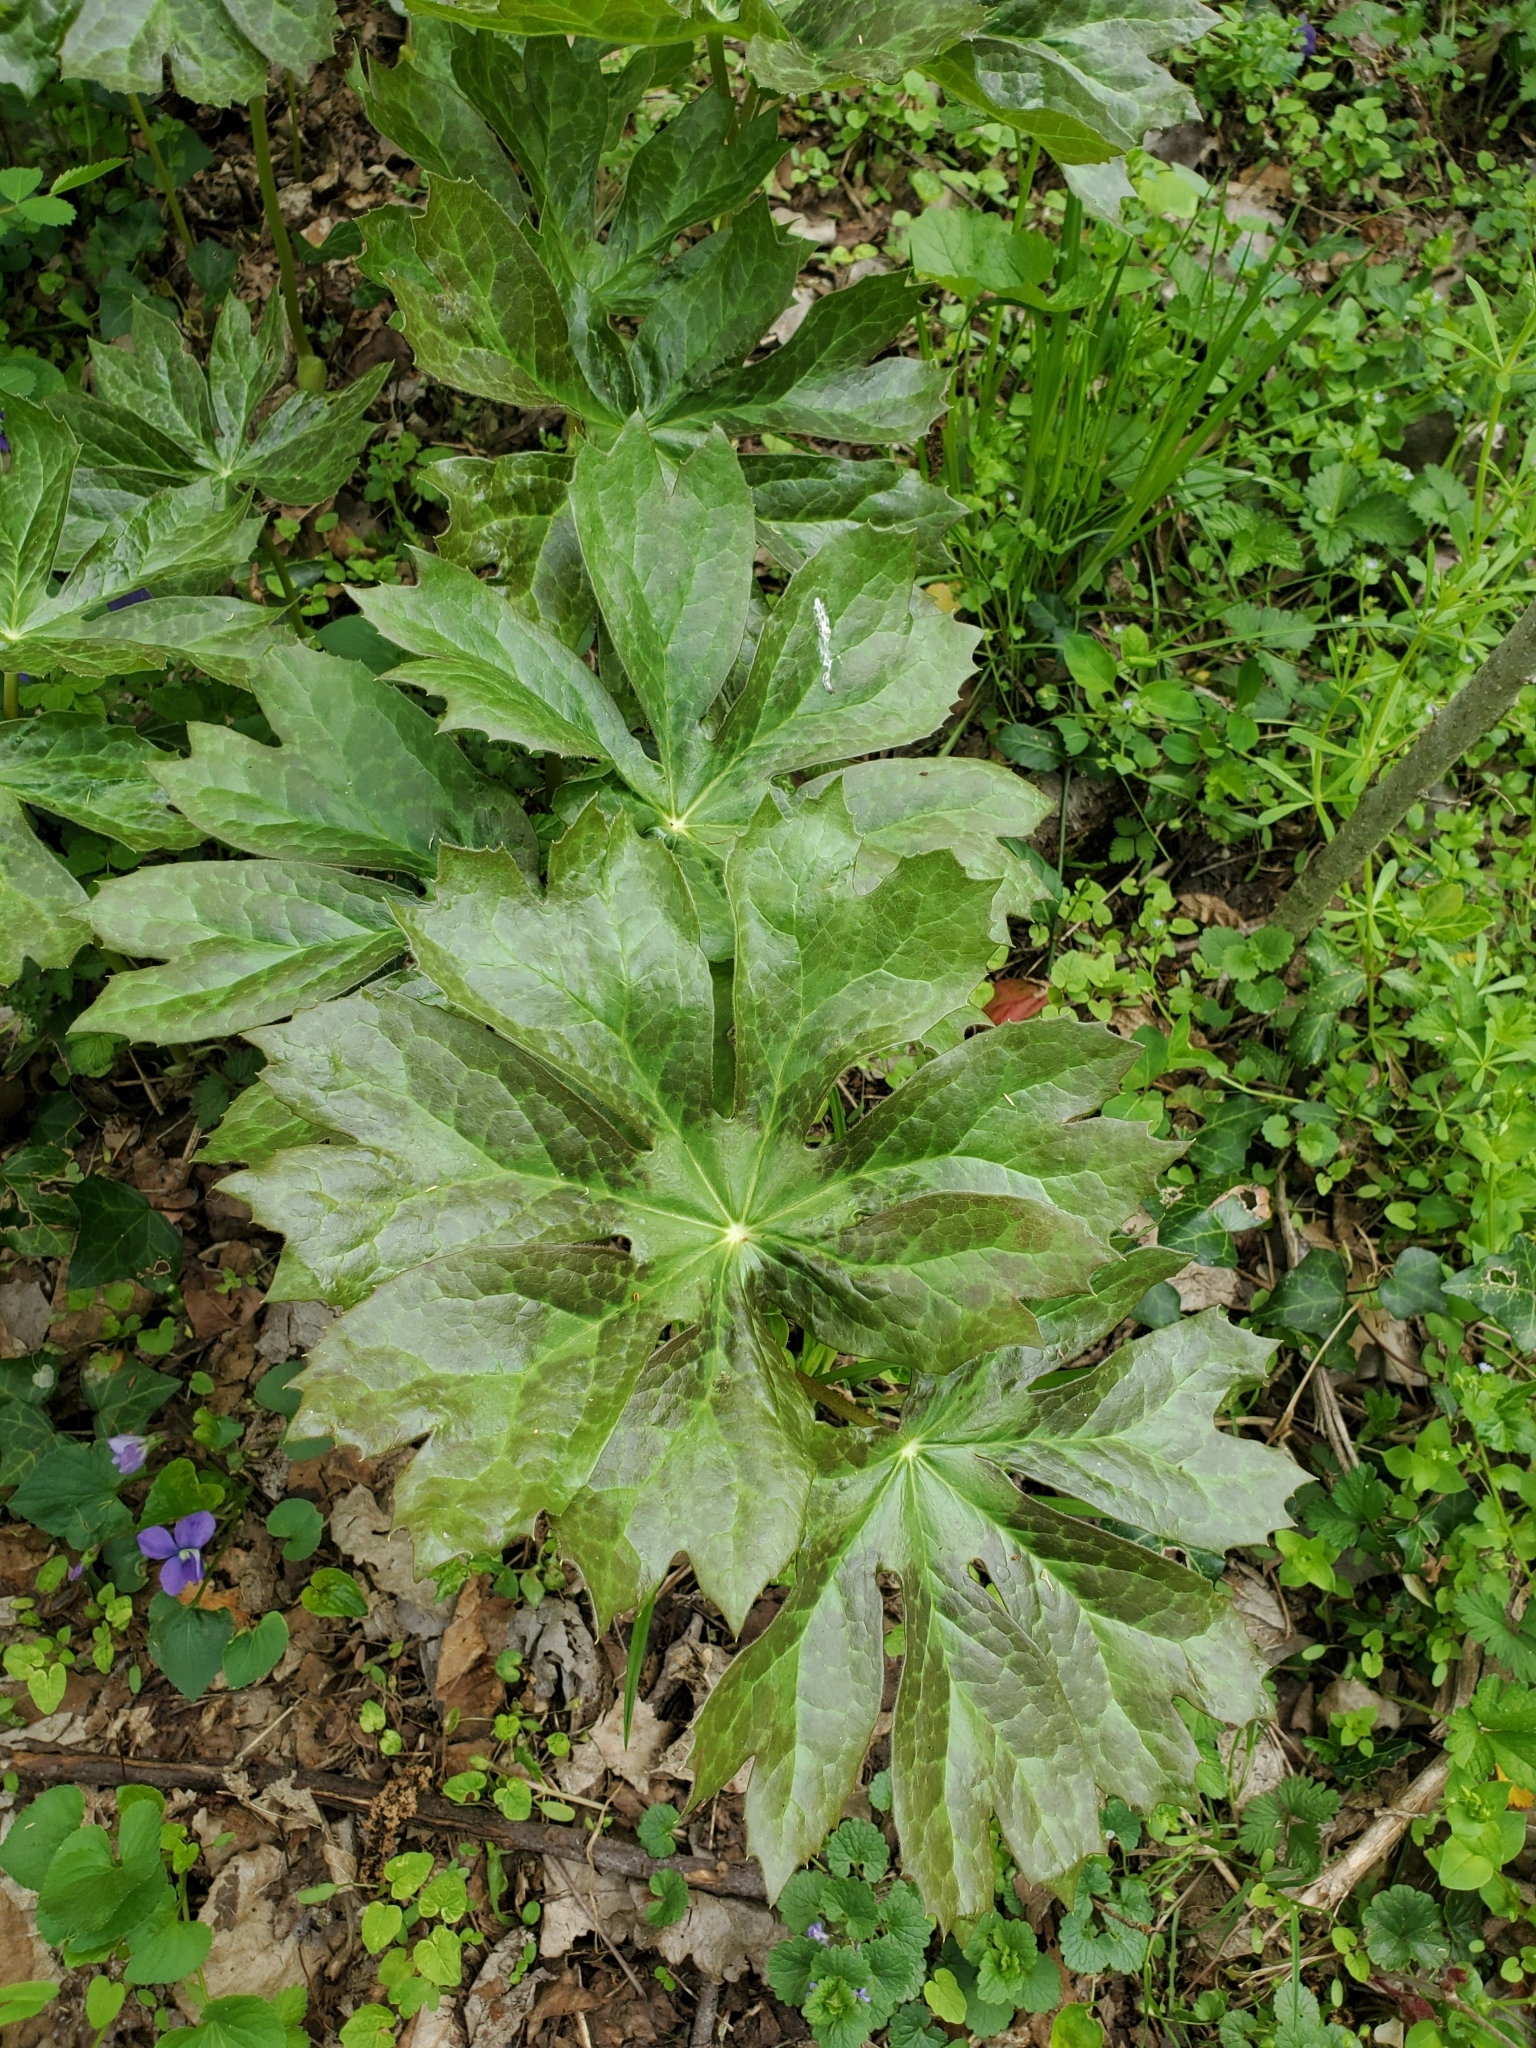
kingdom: Plantae
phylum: Tracheophyta
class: Magnoliopsida
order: Ranunculales
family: Berberidaceae
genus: Podophyllum
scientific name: Podophyllum peltatum
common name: Wild mandrake
